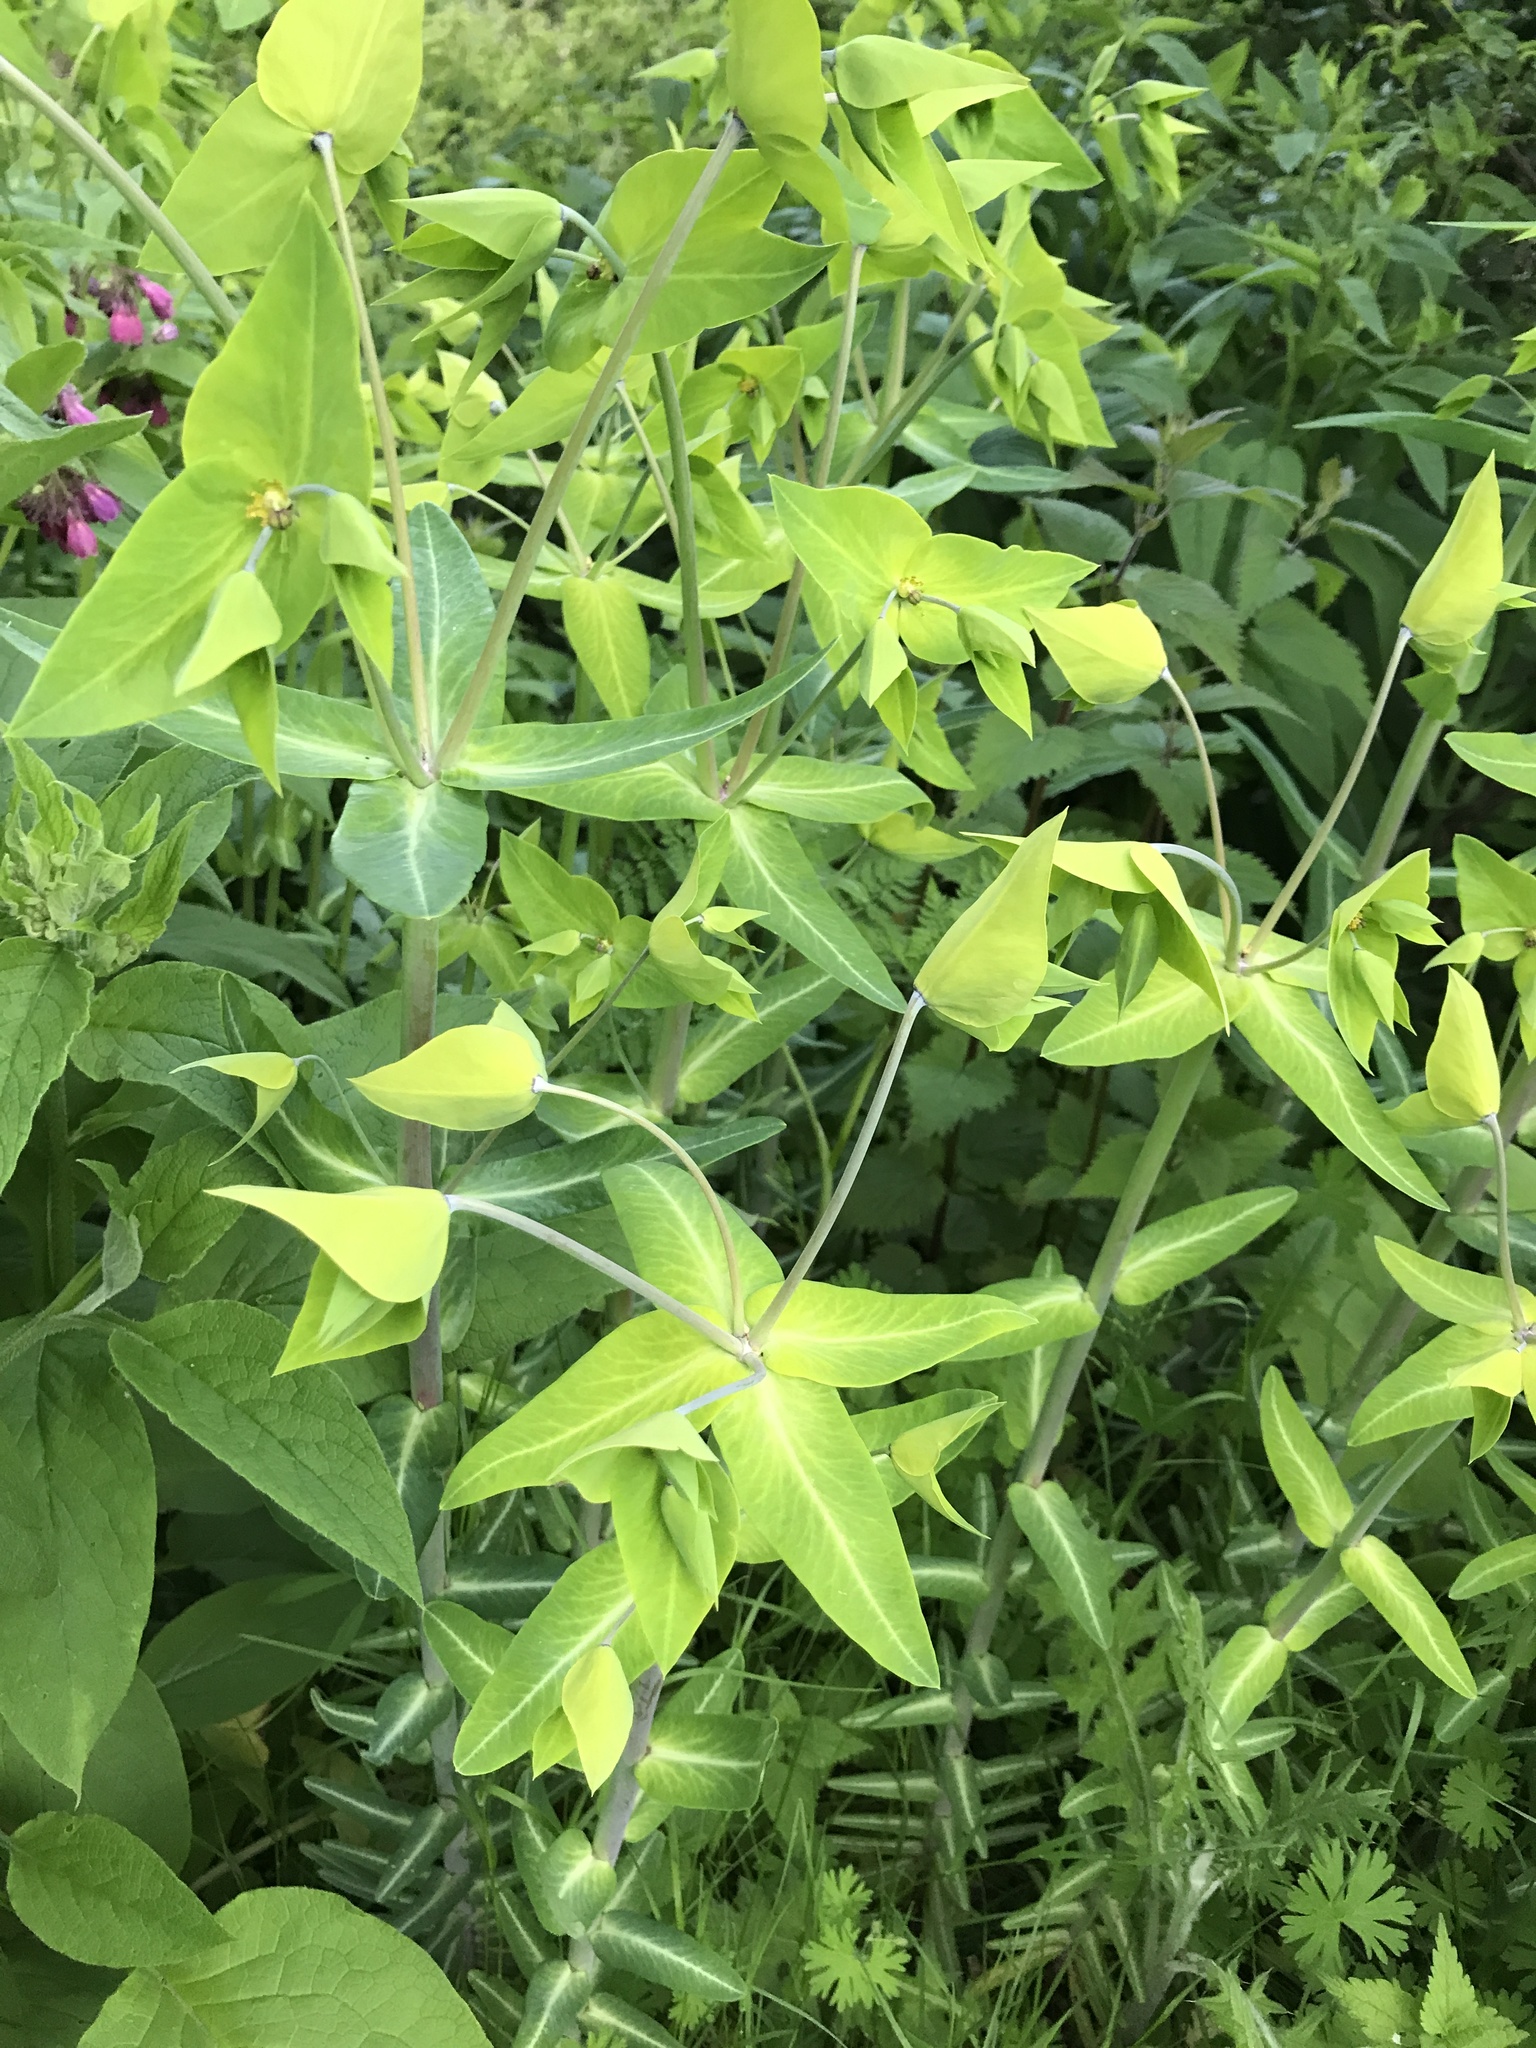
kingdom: Plantae
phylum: Tracheophyta
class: Magnoliopsida
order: Malpighiales
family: Euphorbiaceae
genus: Euphorbia
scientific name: Euphorbia lathyris
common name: Caper spurge
